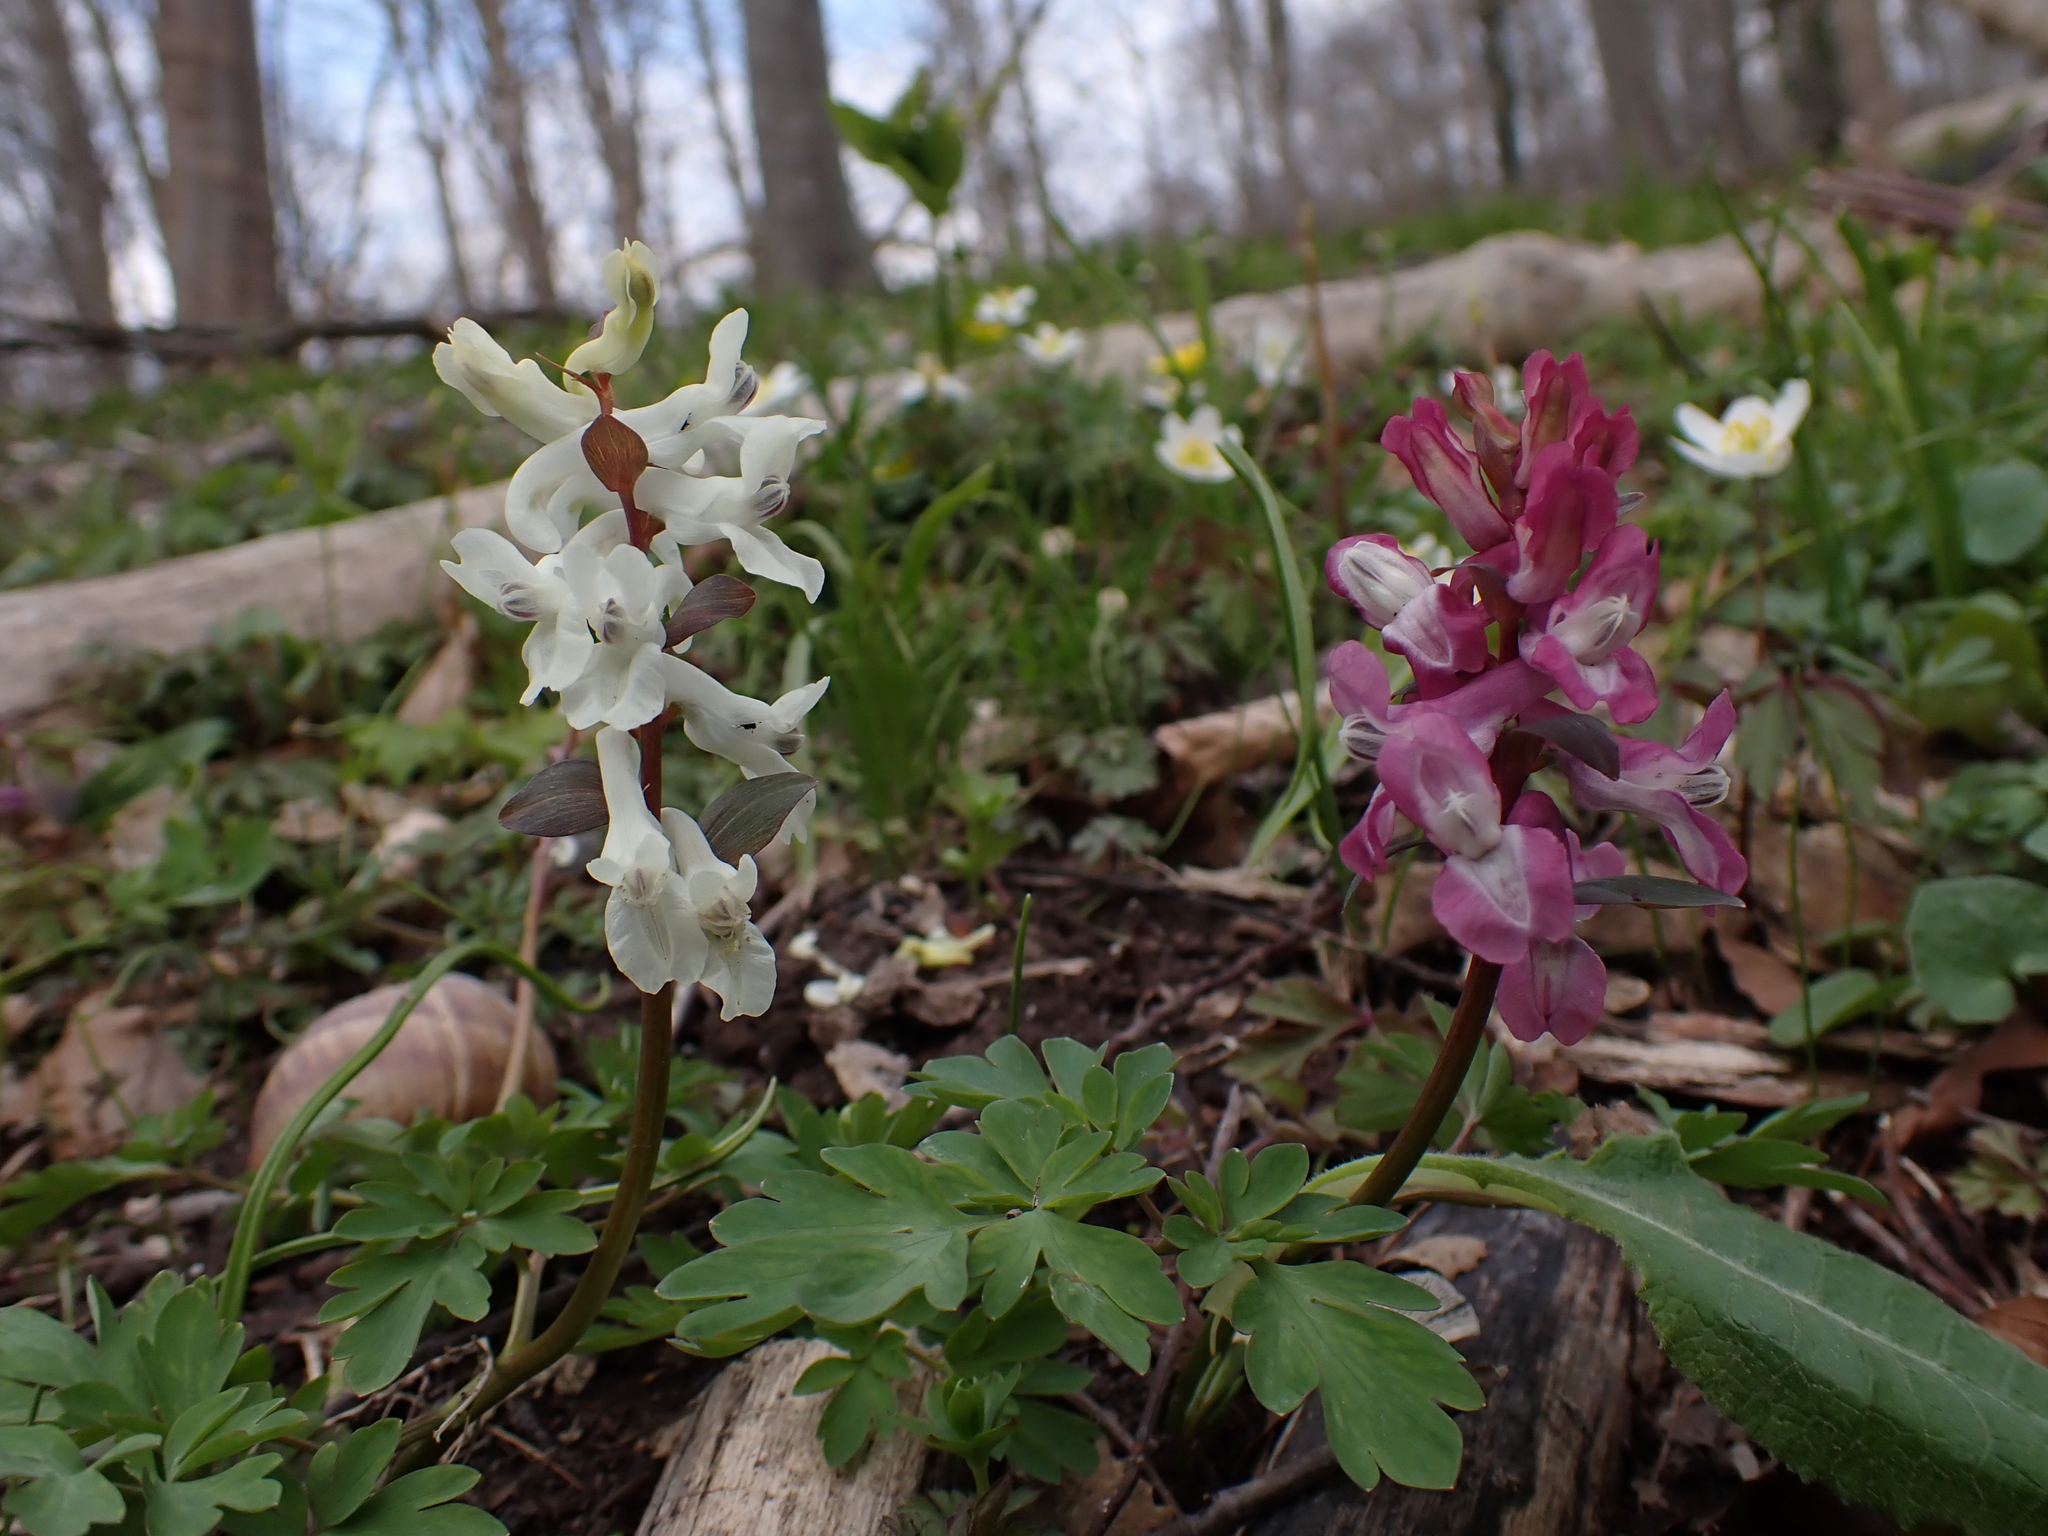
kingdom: Plantae
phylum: Tracheophyta
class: Magnoliopsida
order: Ranunculales
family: Papaveraceae
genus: Corydalis
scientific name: Corydalis cava
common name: Hollowroot
